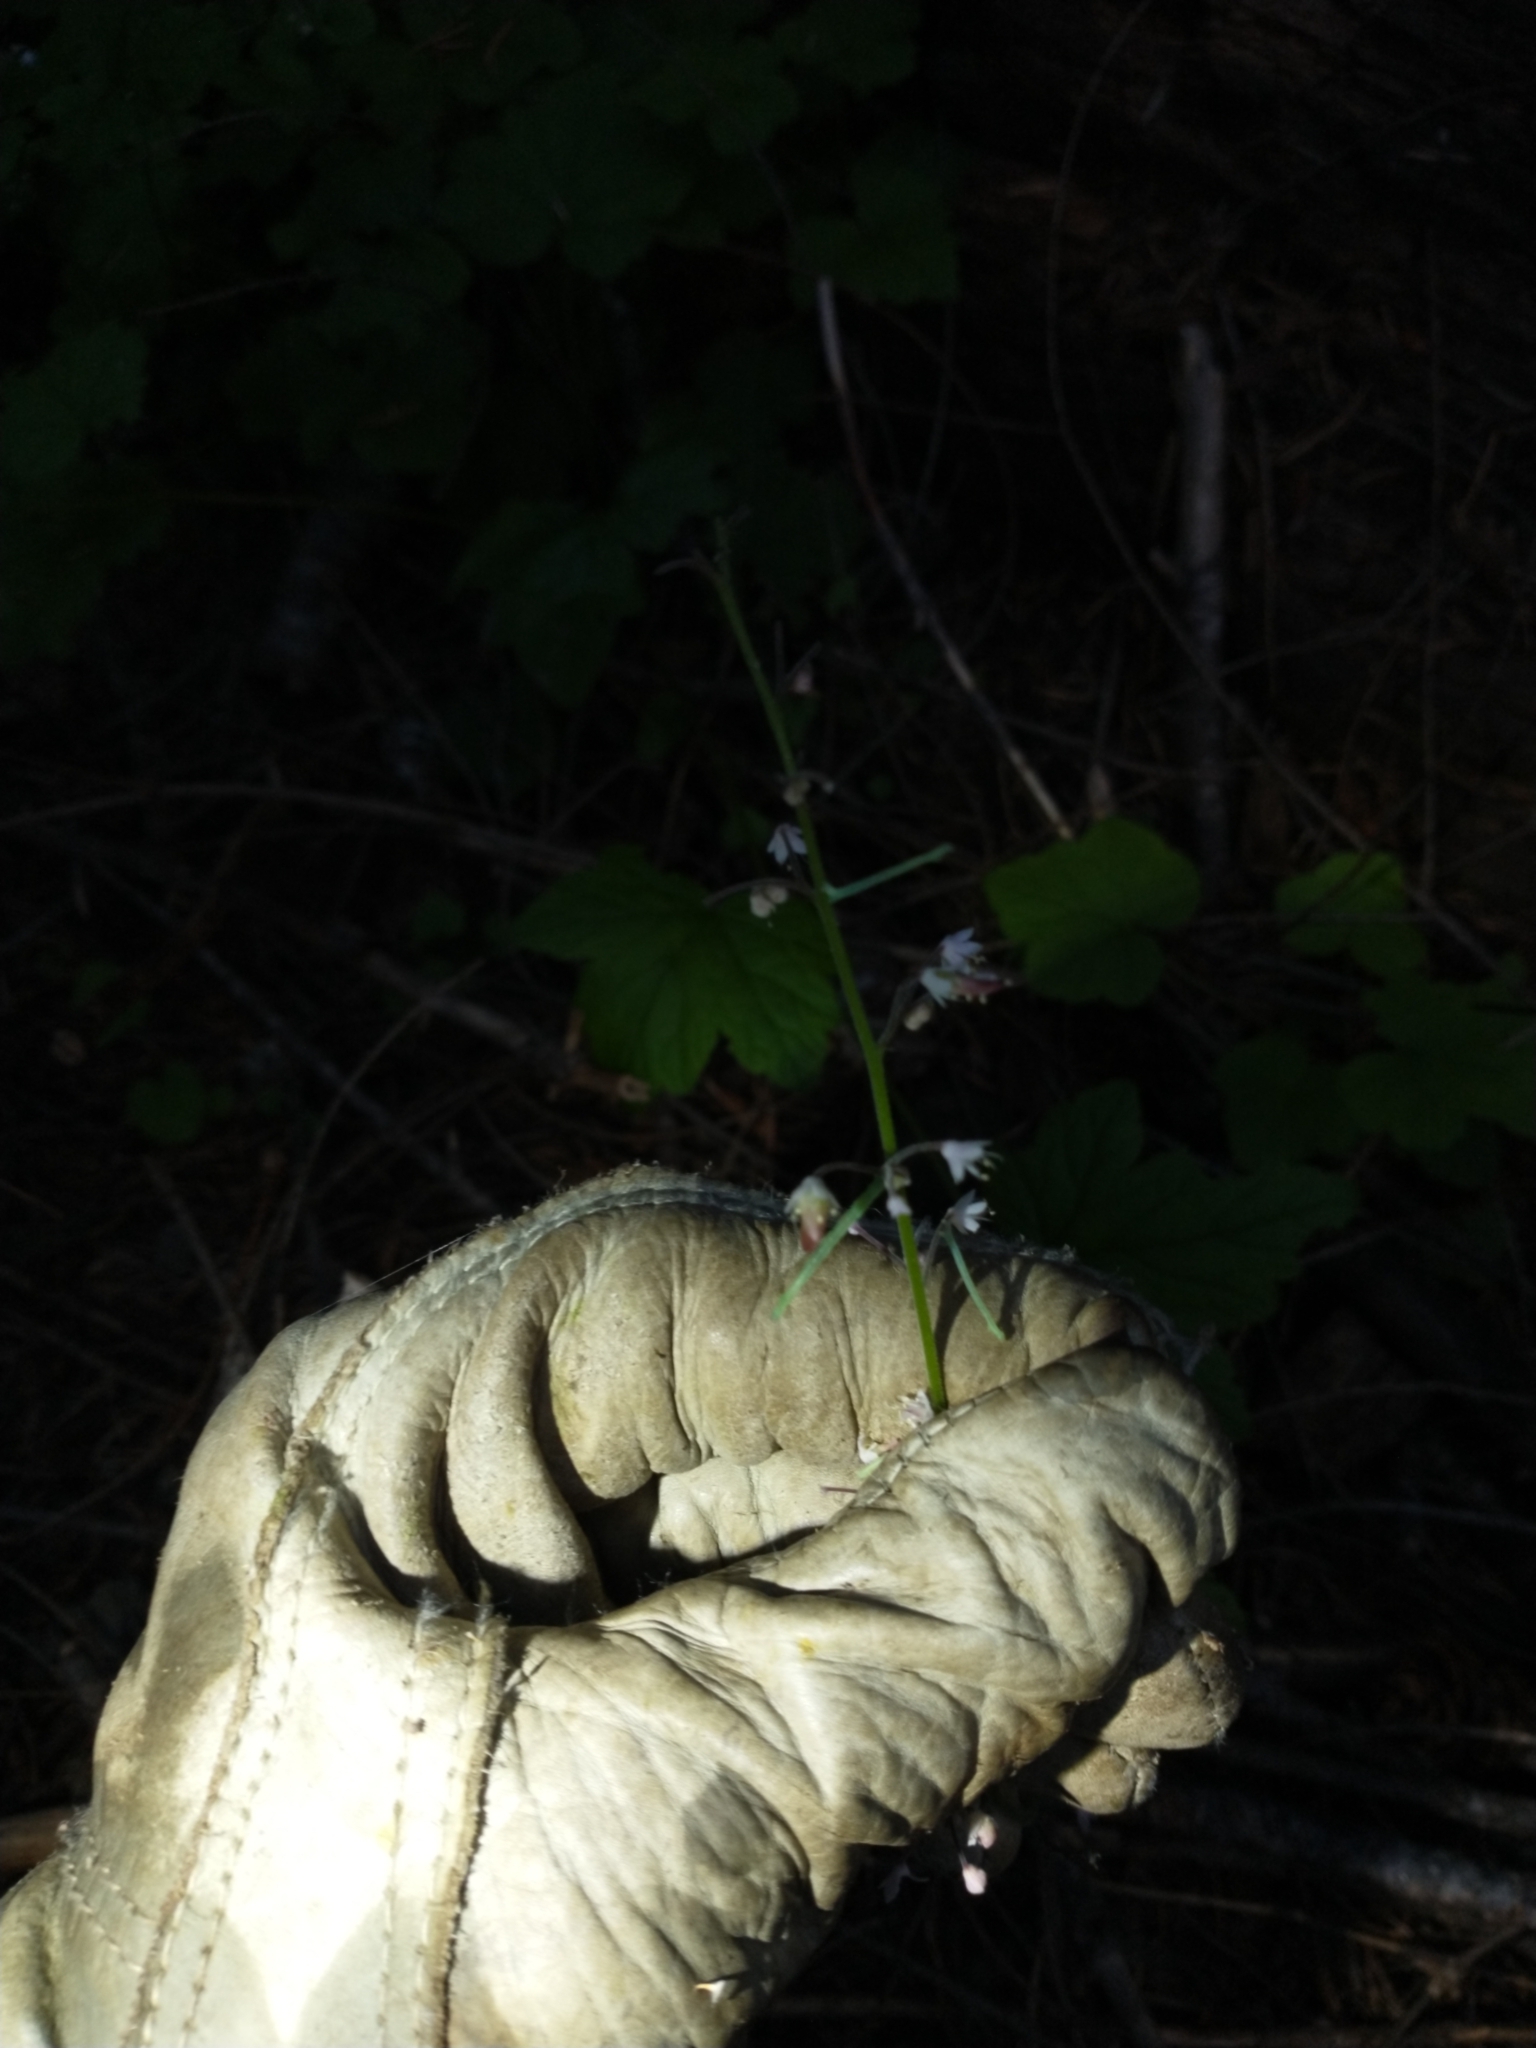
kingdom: Plantae
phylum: Tracheophyta
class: Magnoliopsida
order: Saxifragales
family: Saxifragaceae
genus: Tiarella
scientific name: Tiarella trifoliata
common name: Sugar-scoop
